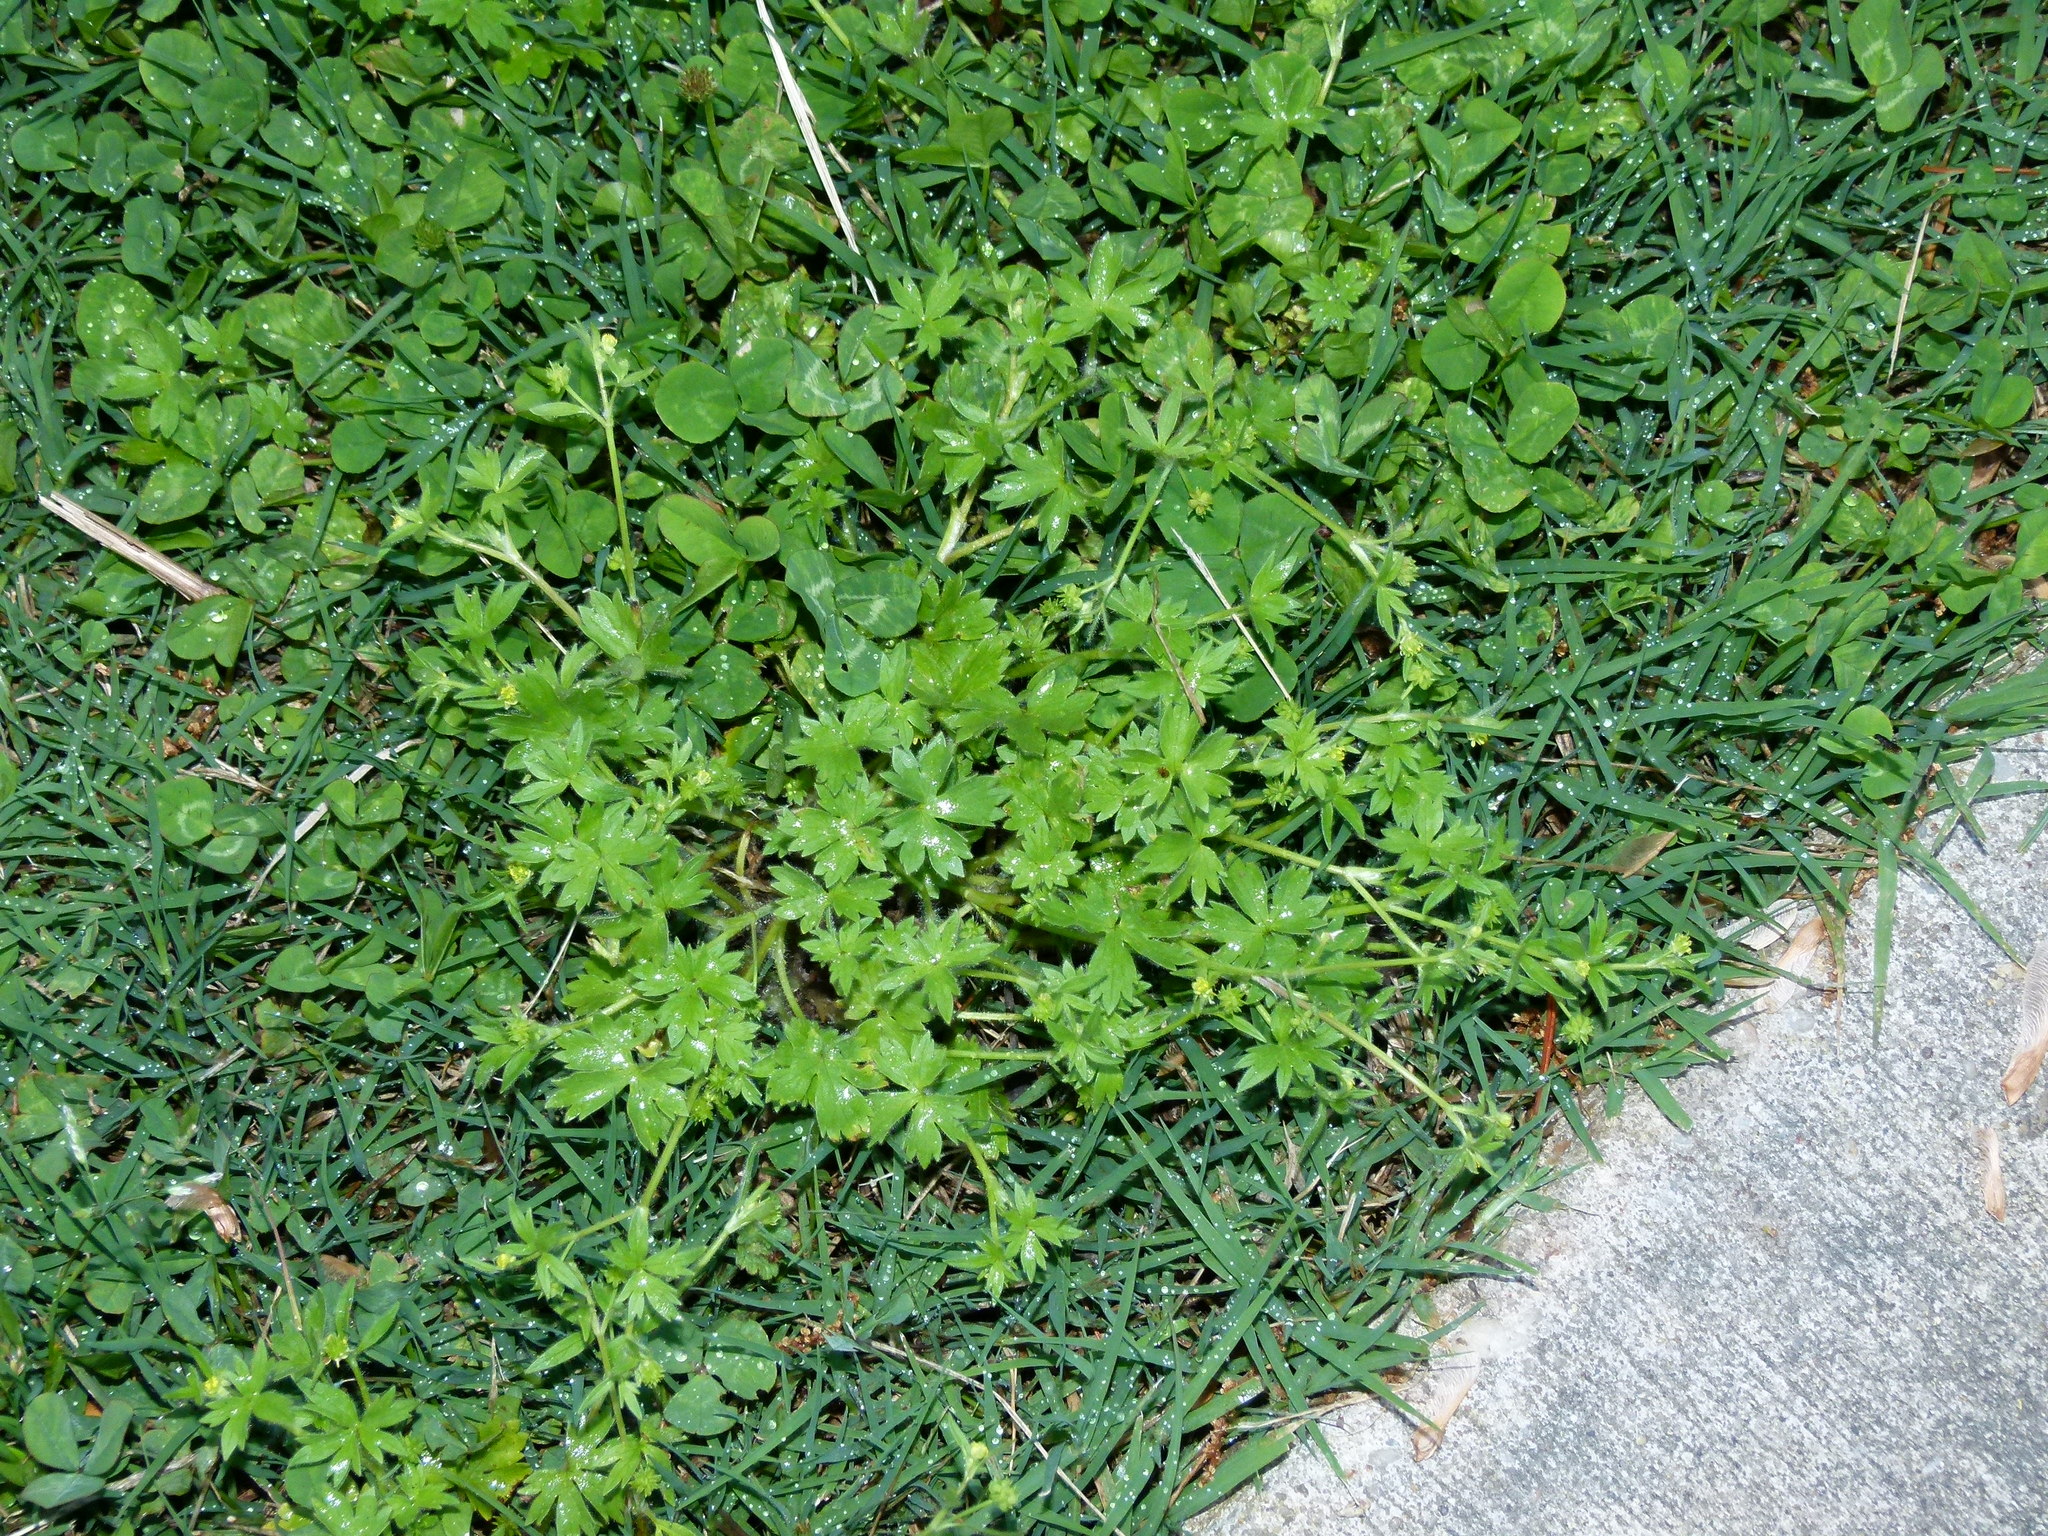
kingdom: Plantae
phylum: Tracheophyta
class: Magnoliopsida
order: Ranunculales
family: Ranunculaceae
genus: Ranunculus
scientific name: Ranunculus parviflorus
